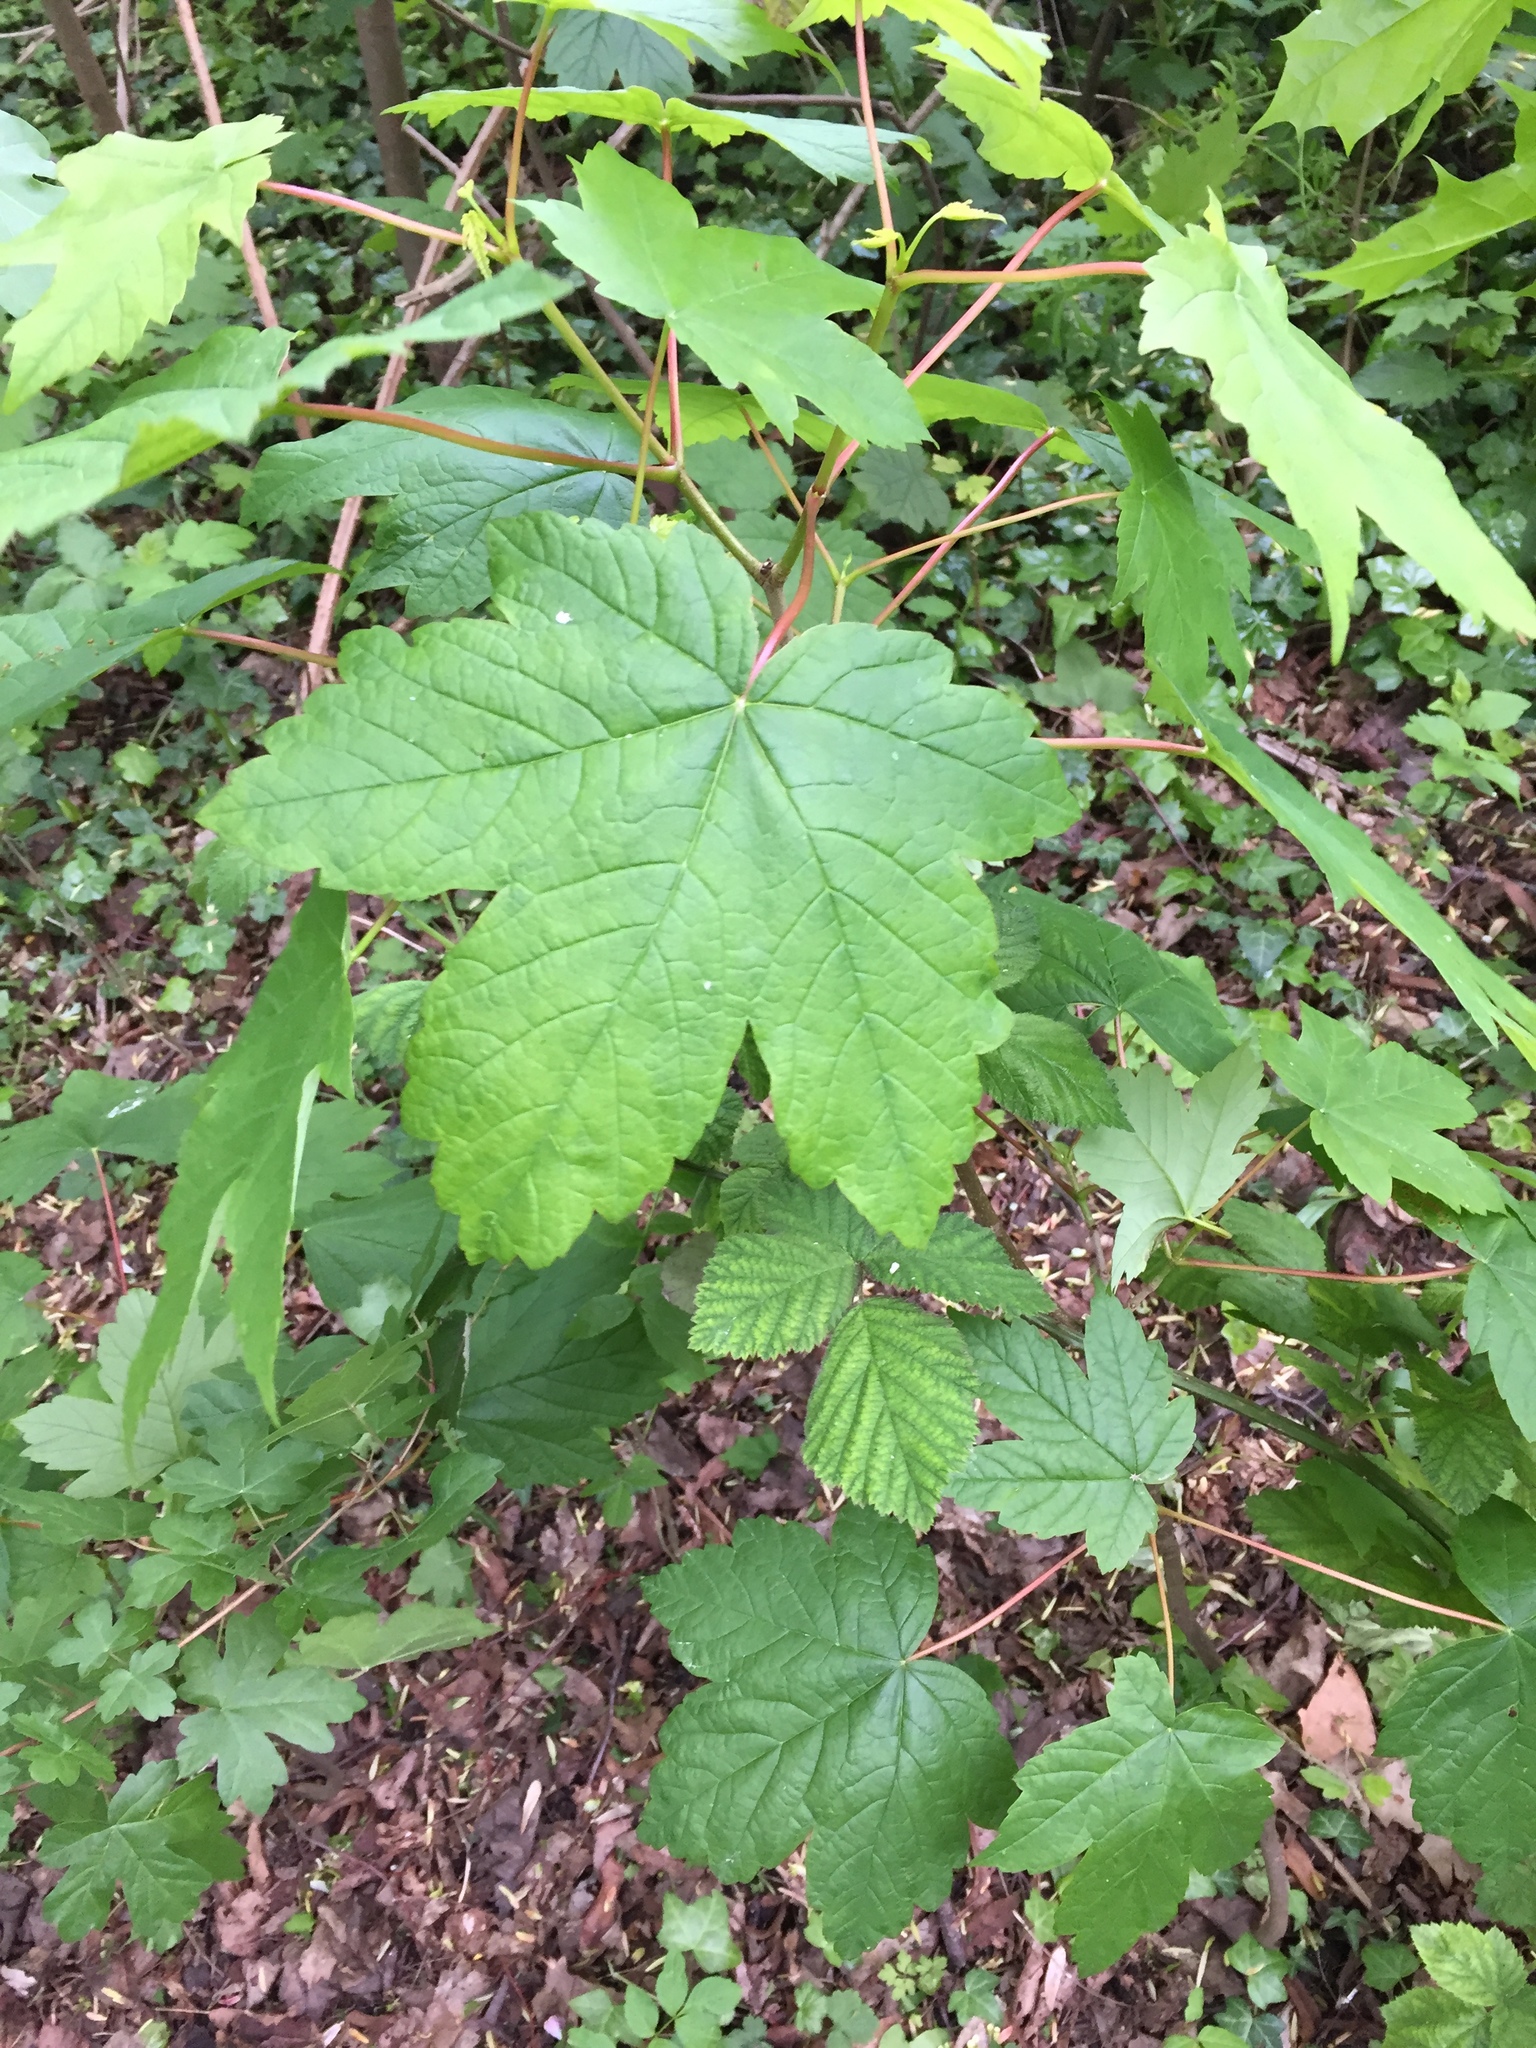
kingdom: Plantae
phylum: Tracheophyta
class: Magnoliopsida
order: Sapindales
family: Sapindaceae
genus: Acer
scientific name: Acer pseudoplatanus
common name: Sycamore
